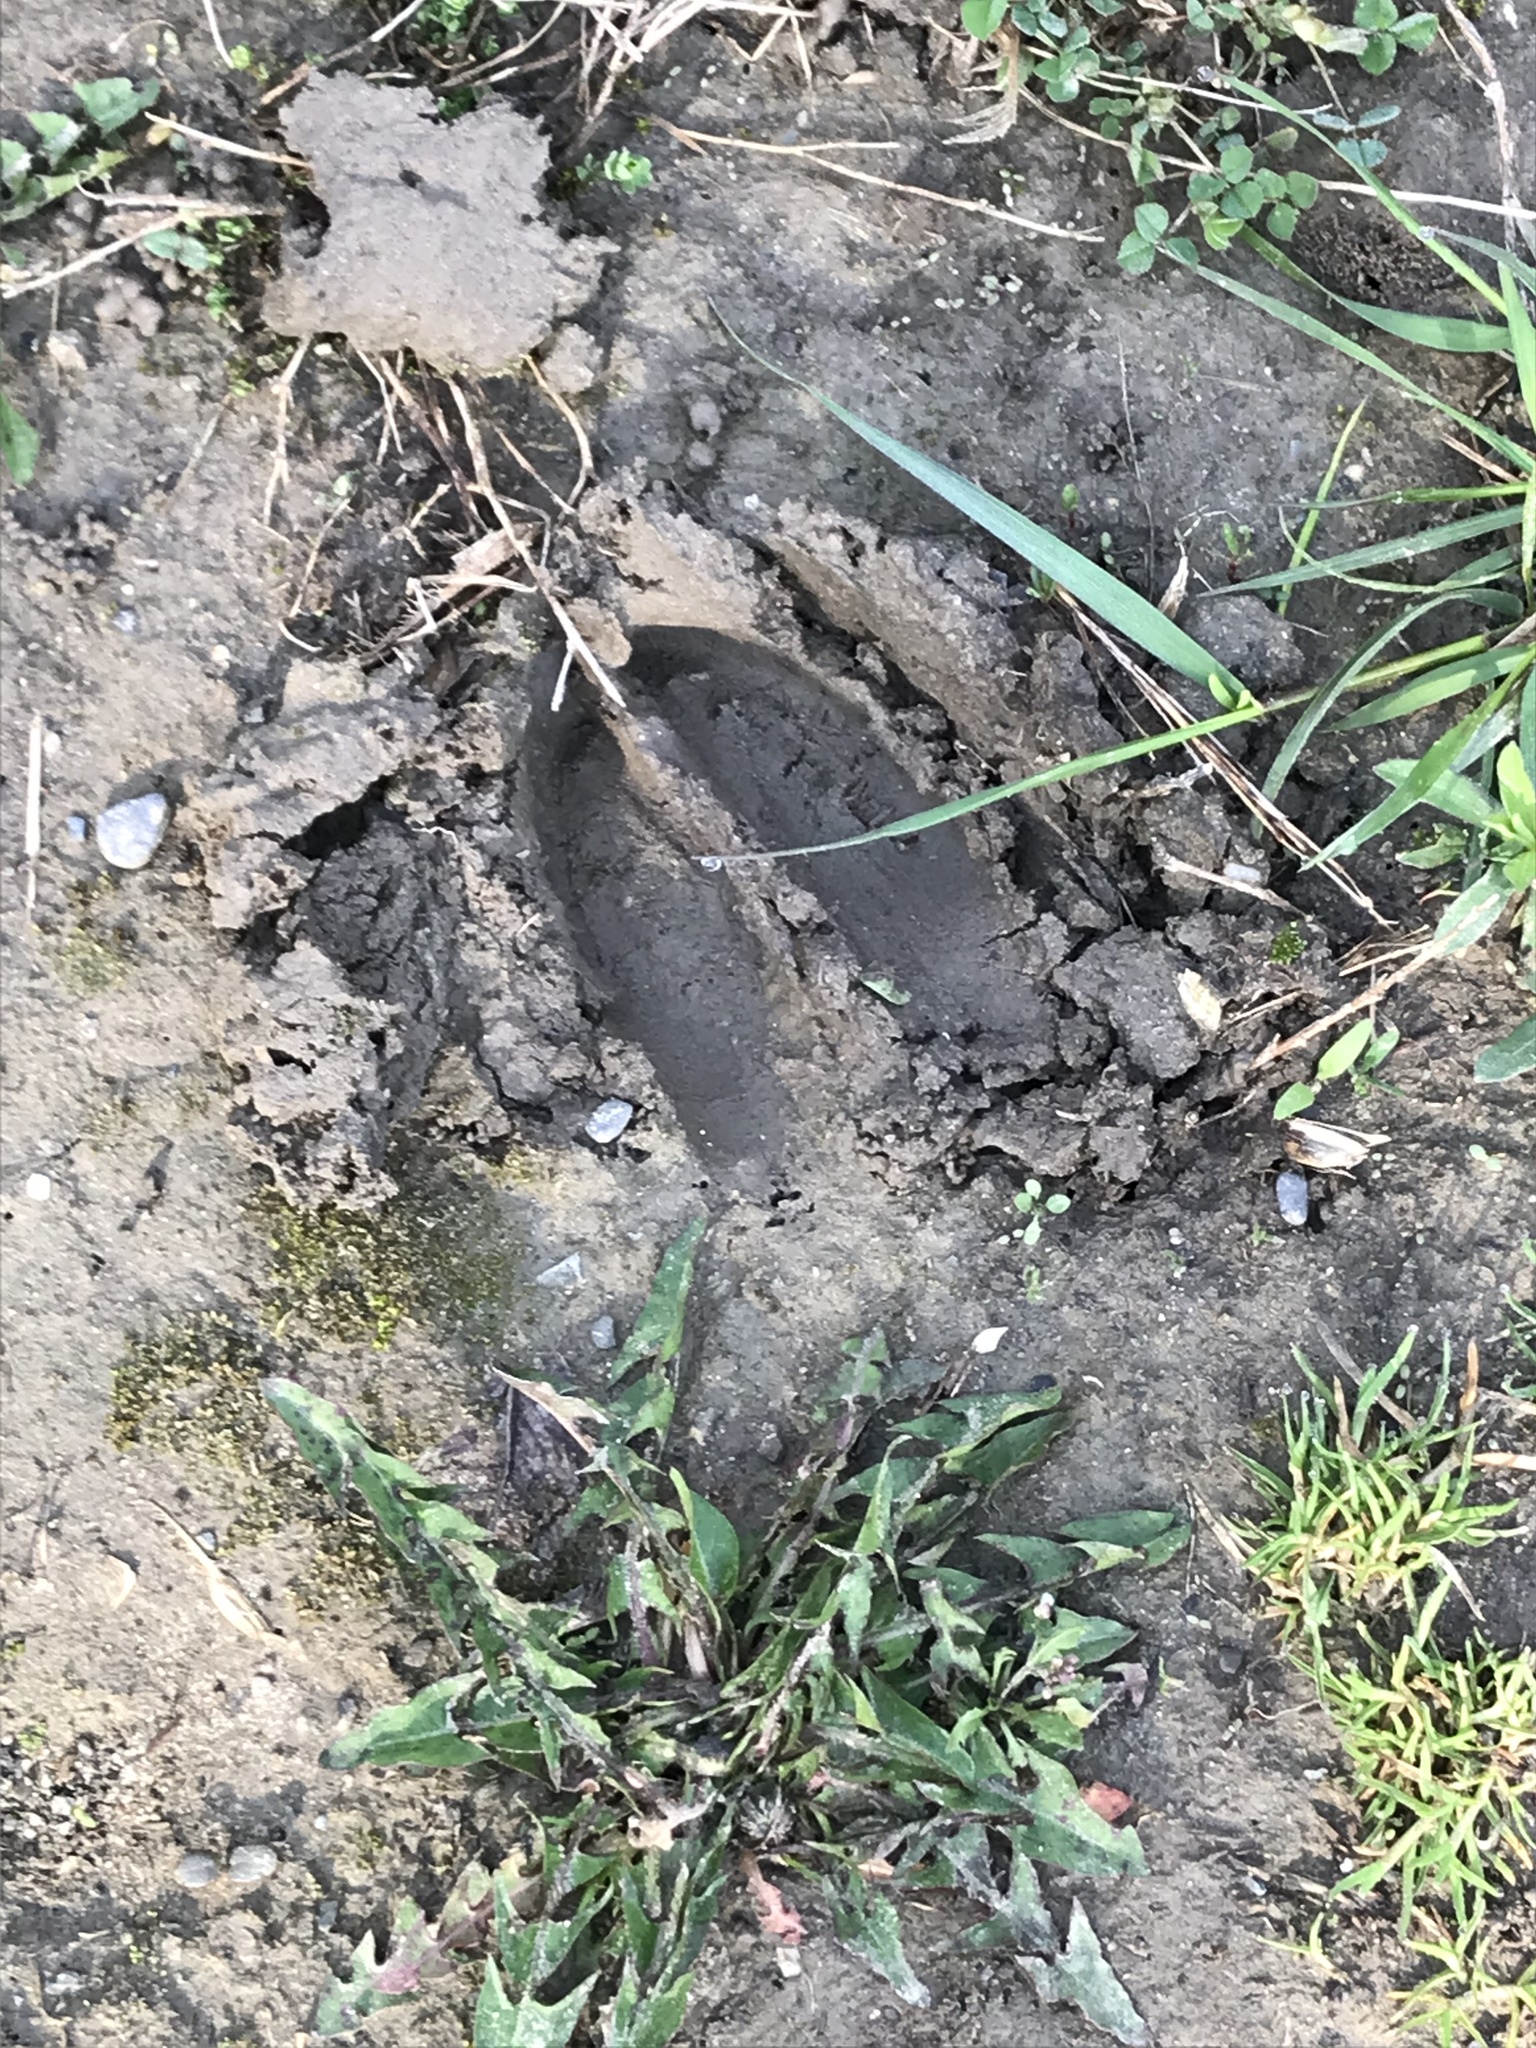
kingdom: Animalia
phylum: Chordata
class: Mammalia
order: Artiodactyla
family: Cervidae
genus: Odocoileus
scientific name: Odocoileus virginianus
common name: White-tailed deer
